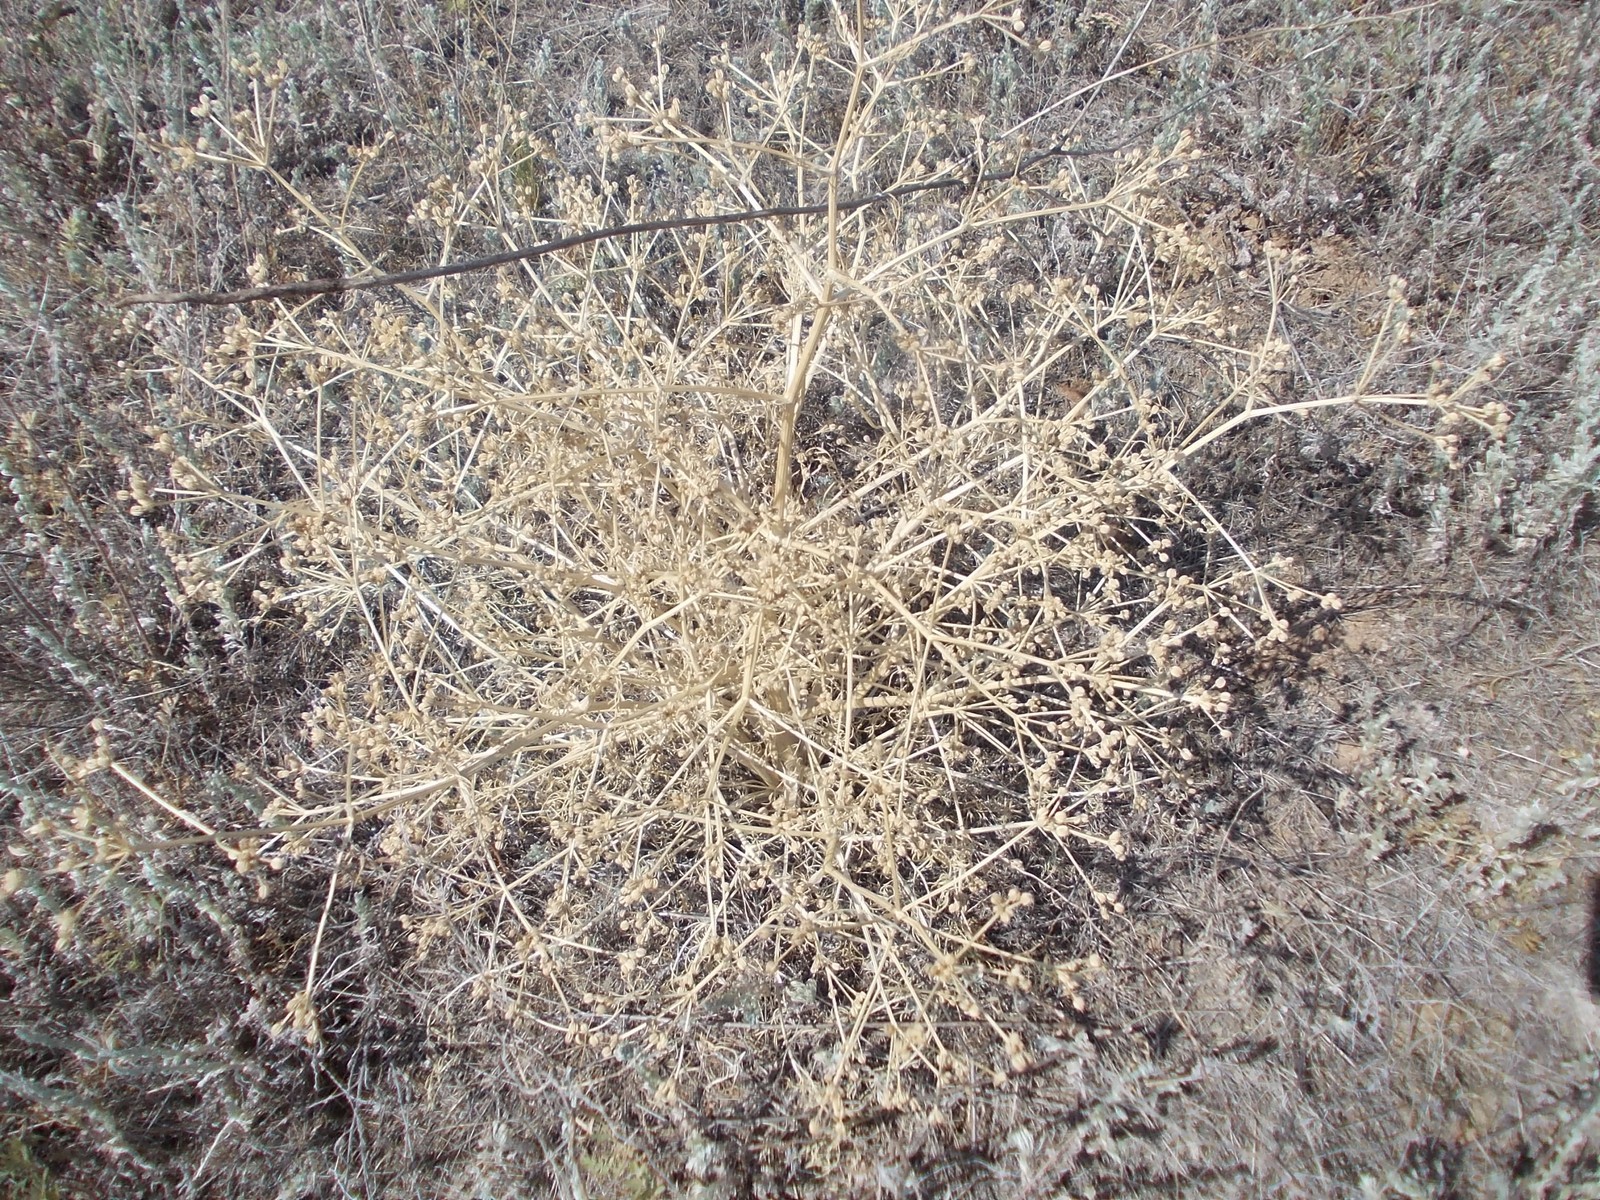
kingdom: Plantae
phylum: Tracheophyta
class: Magnoliopsida
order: Apiales
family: Apiaceae
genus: Trinia
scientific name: Trinia hispida
